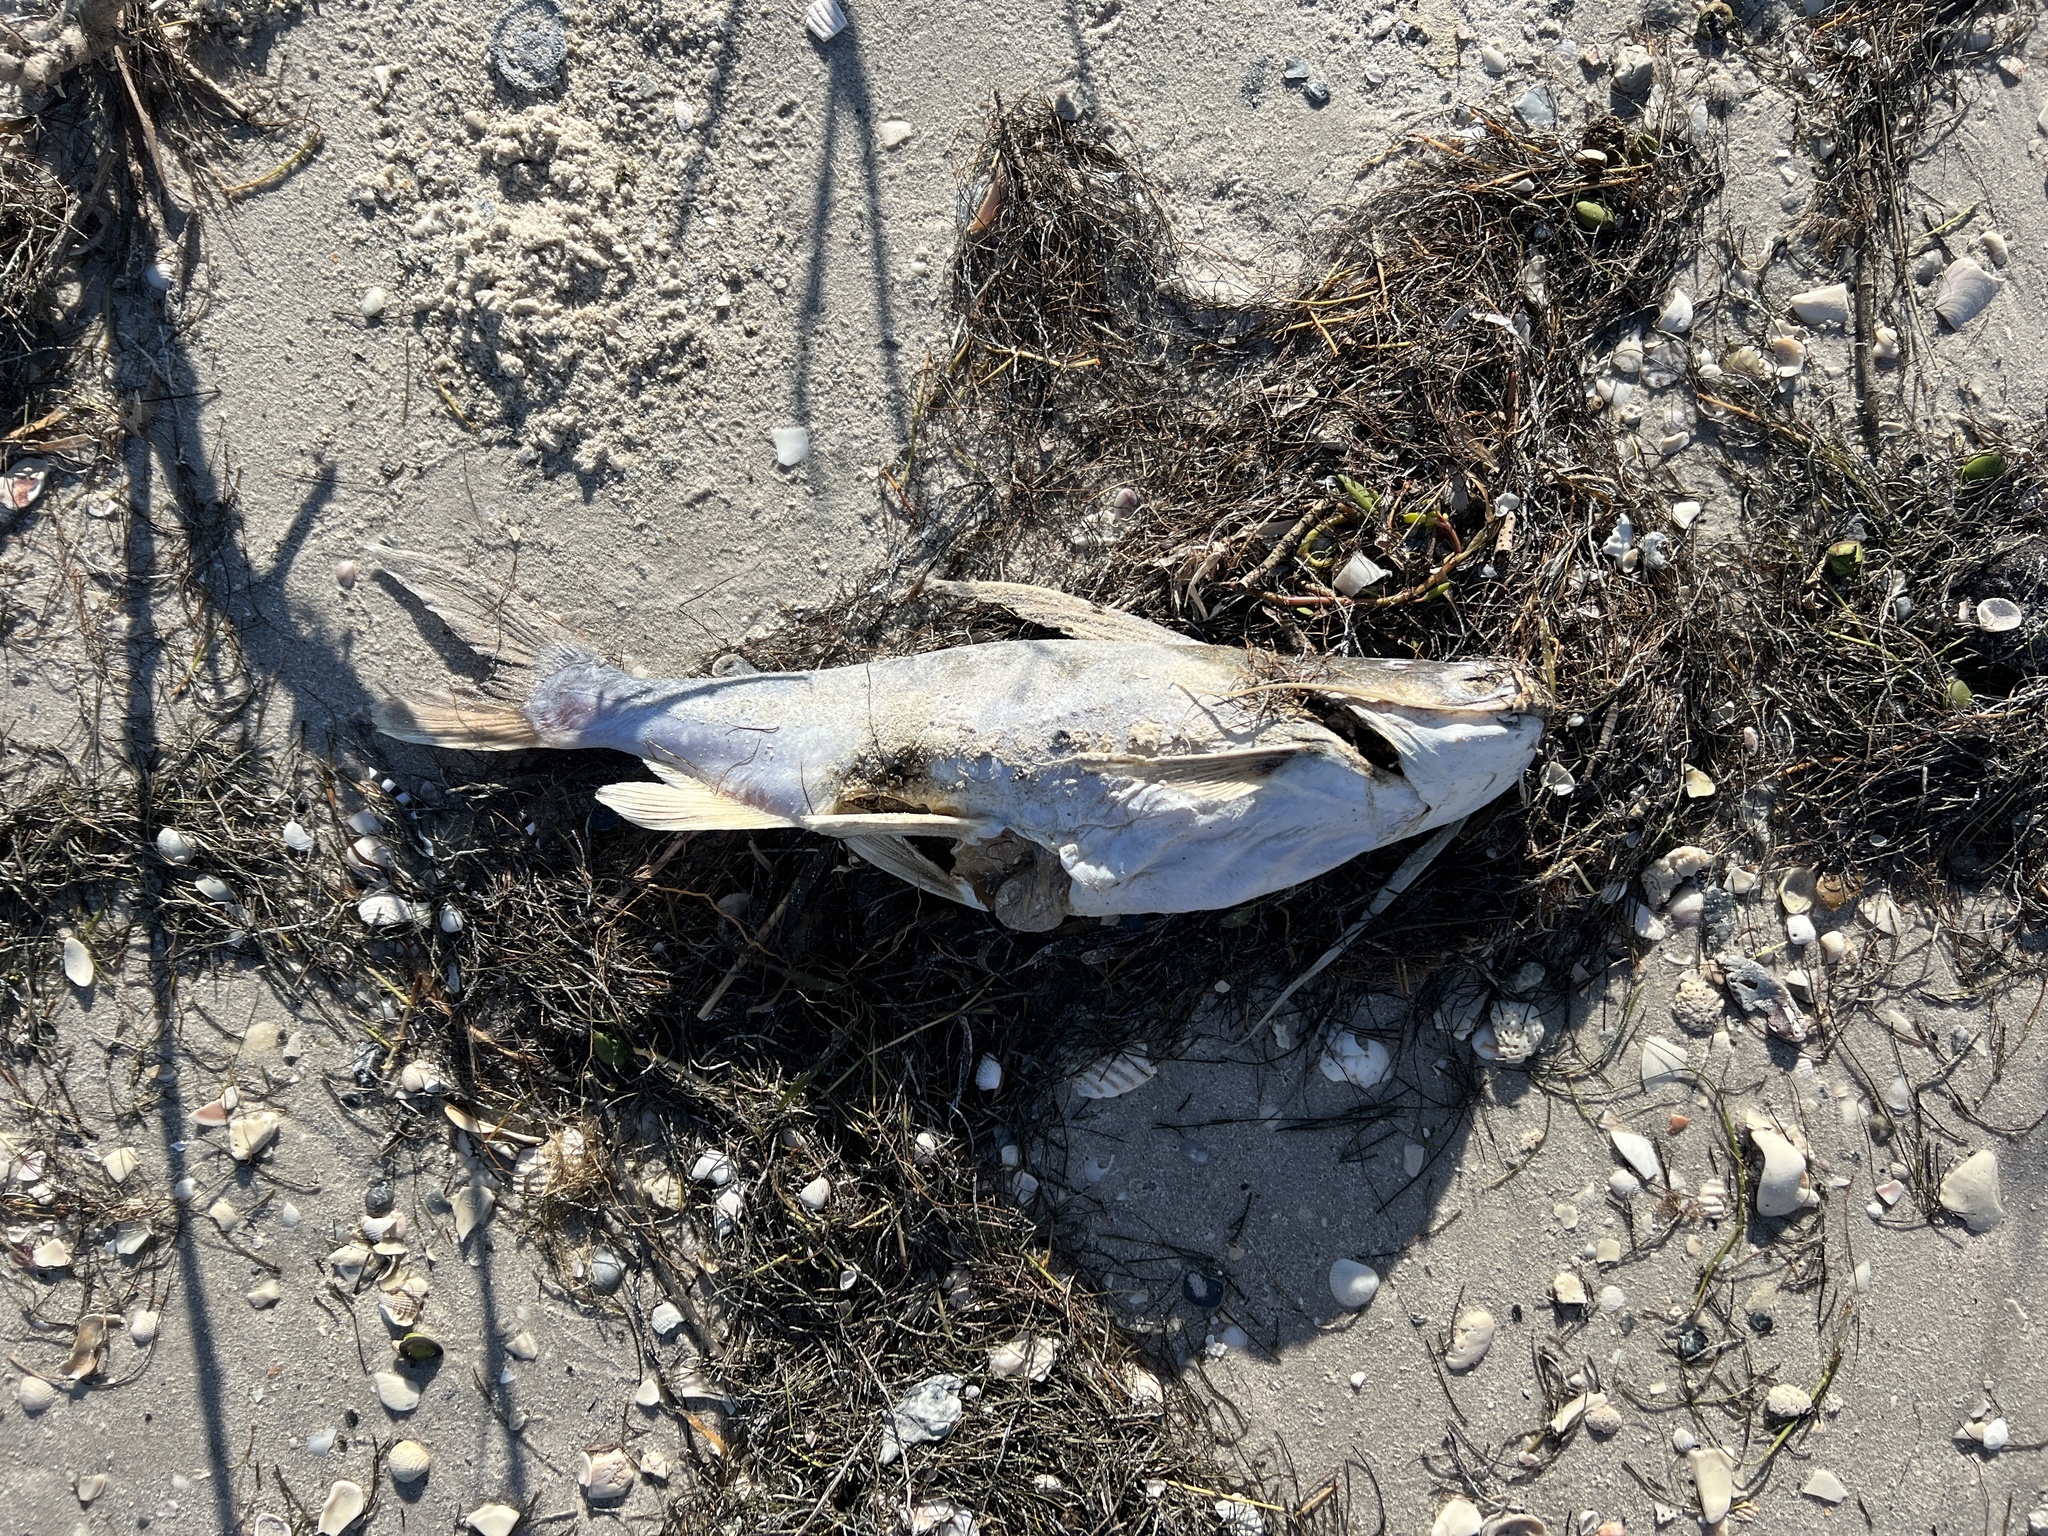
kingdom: Animalia
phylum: Chordata
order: Siluriformes
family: Ariidae
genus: Bagre
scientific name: Bagre marinus
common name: Gafftopsail sea catfish
